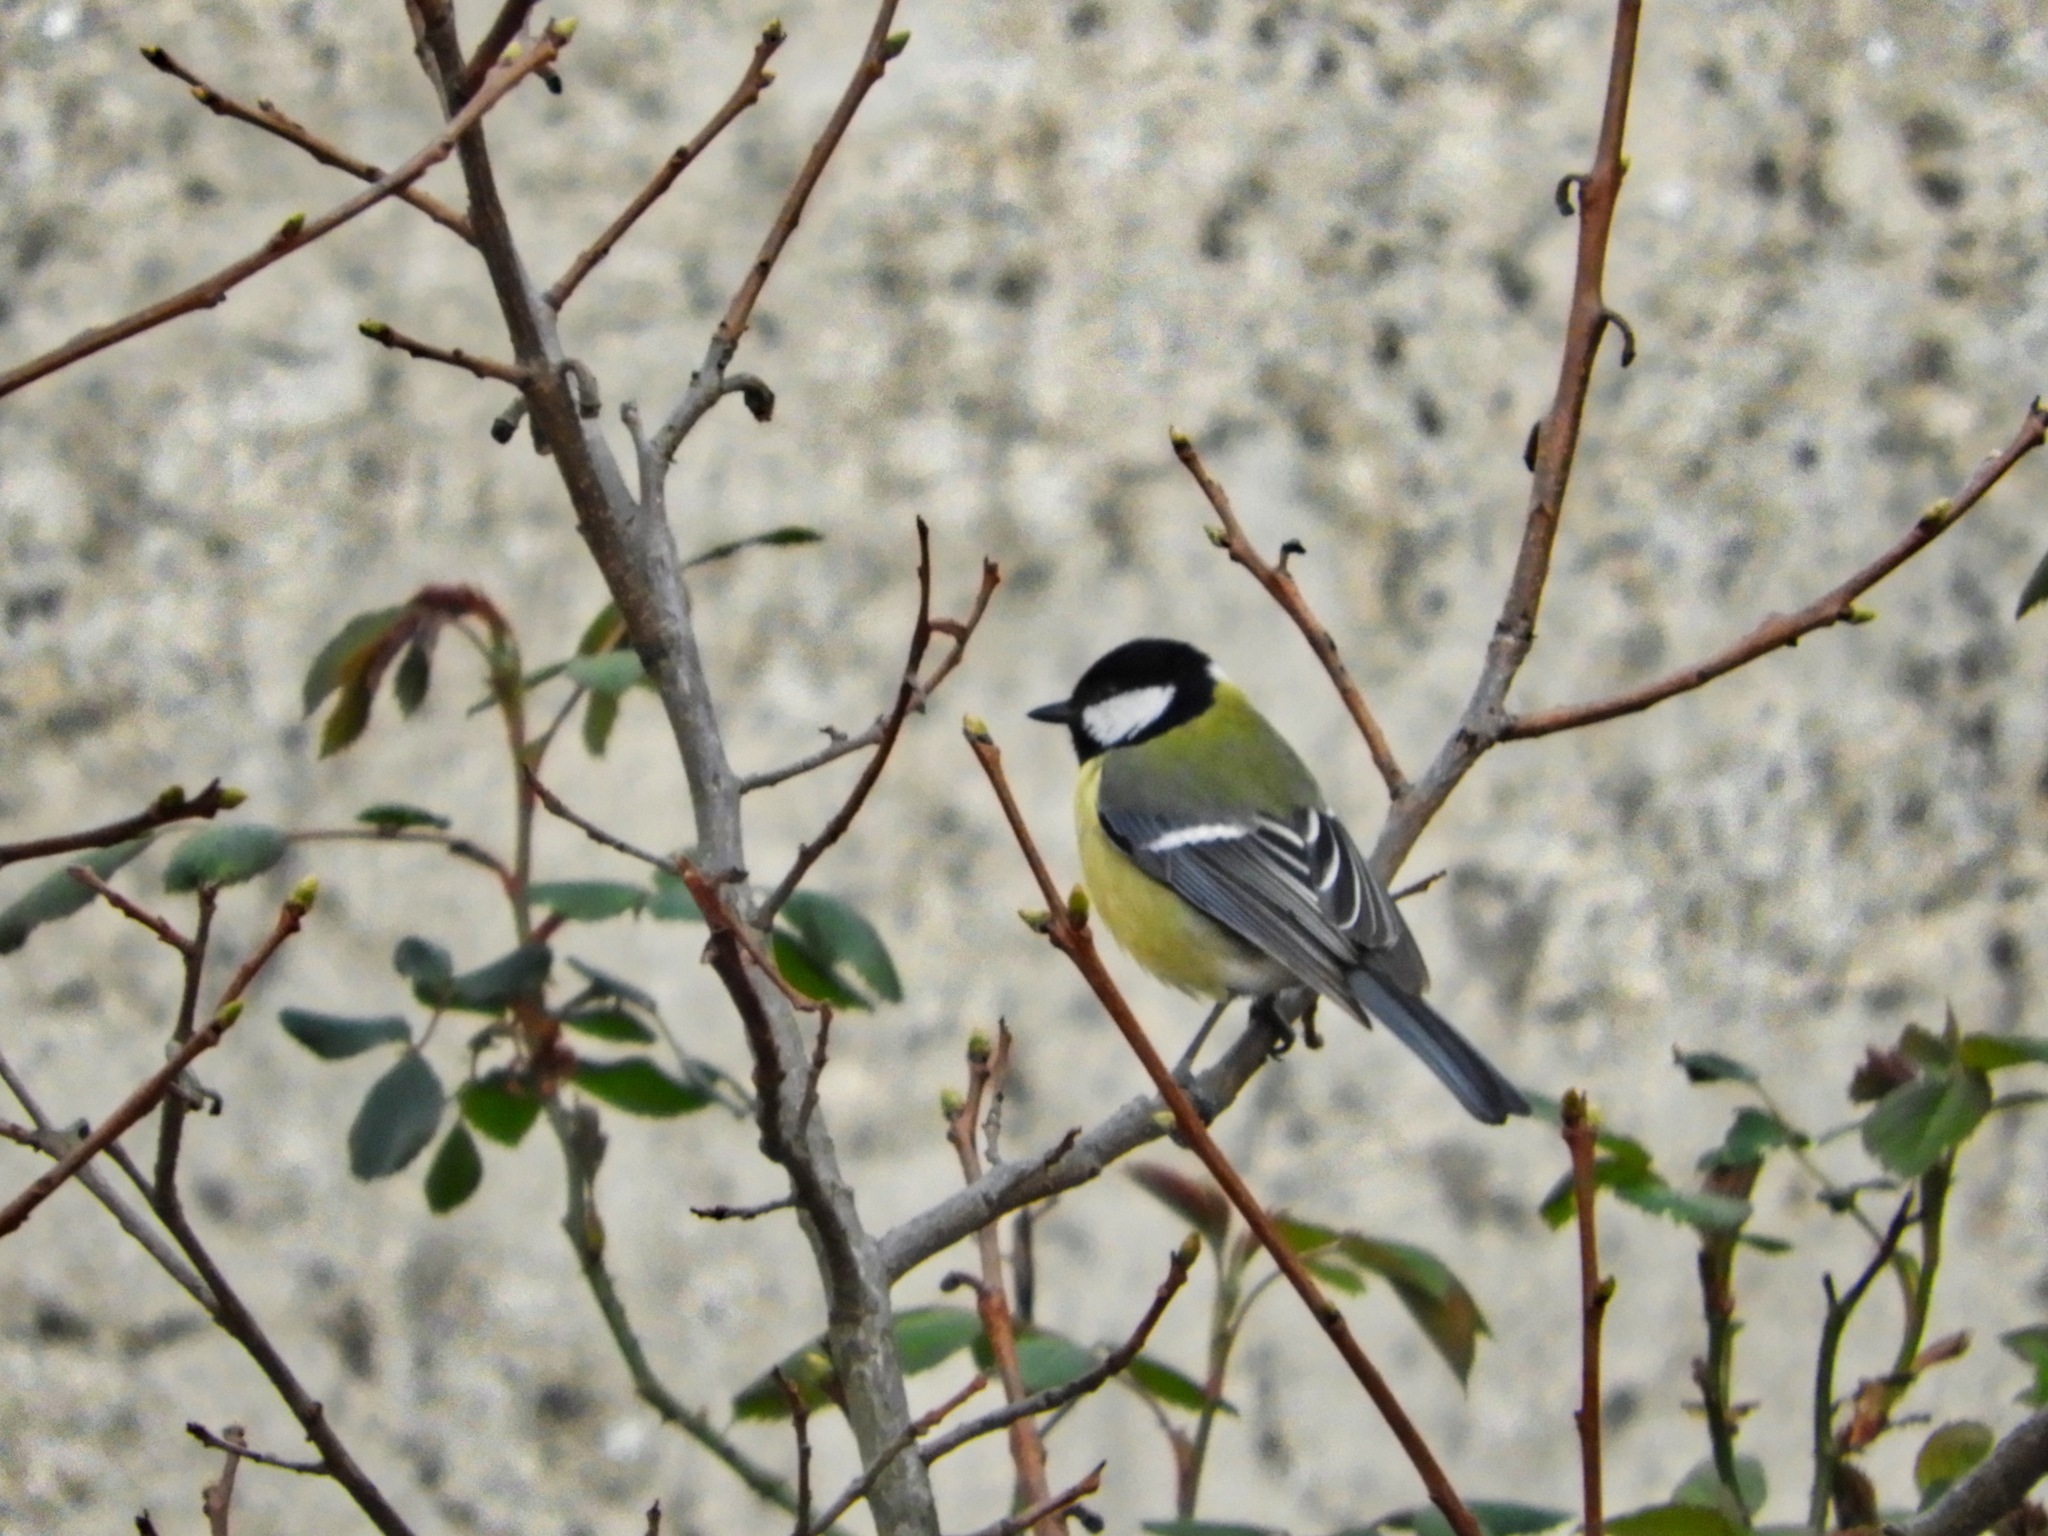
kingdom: Animalia
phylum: Chordata
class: Aves
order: Passeriformes
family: Paridae
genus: Parus
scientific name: Parus major
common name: Great tit
